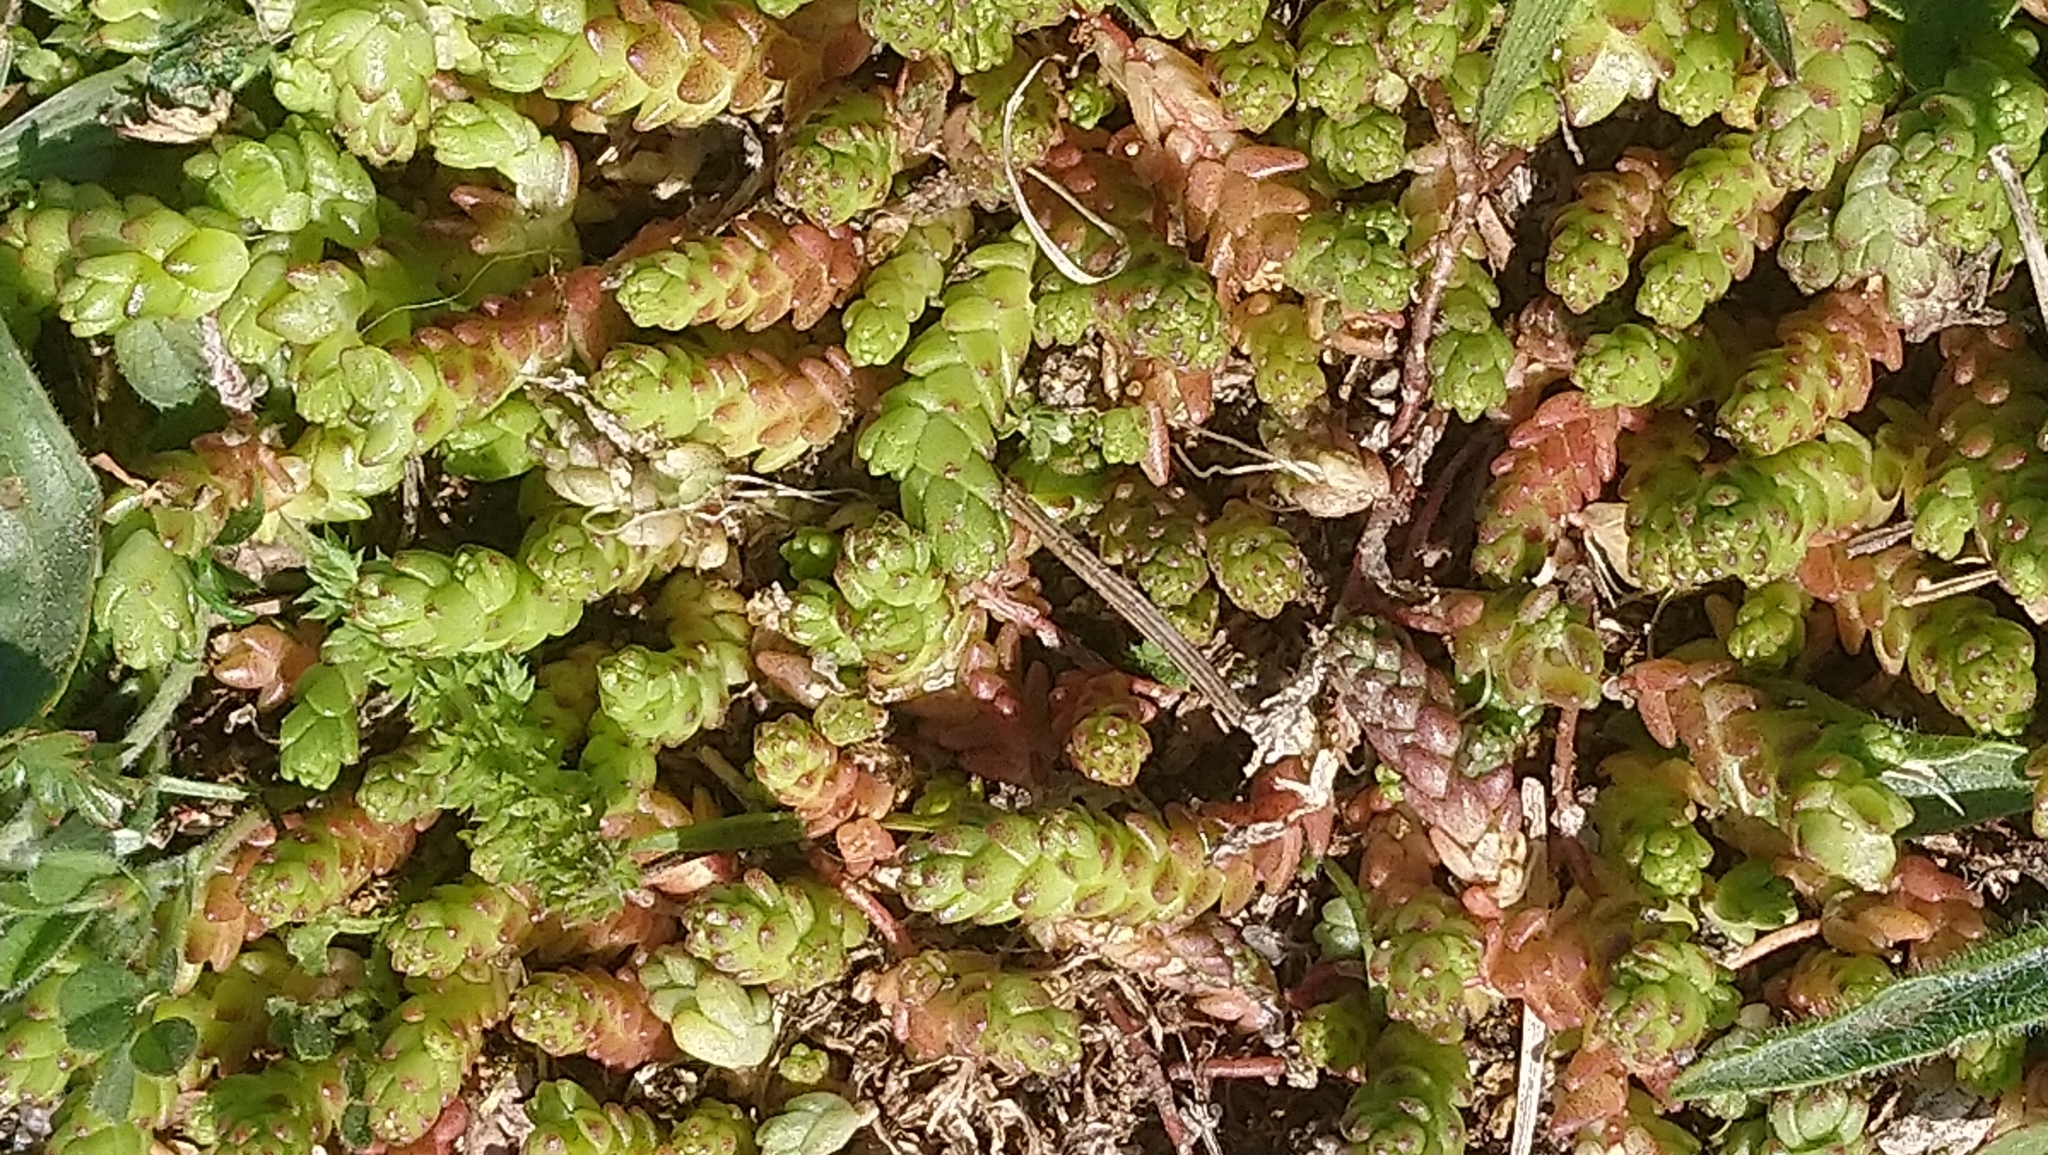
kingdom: Plantae
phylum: Tracheophyta
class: Magnoliopsida
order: Saxifragales
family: Crassulaceae
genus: Sedum
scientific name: Sedum acre
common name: Biting stonecrop
